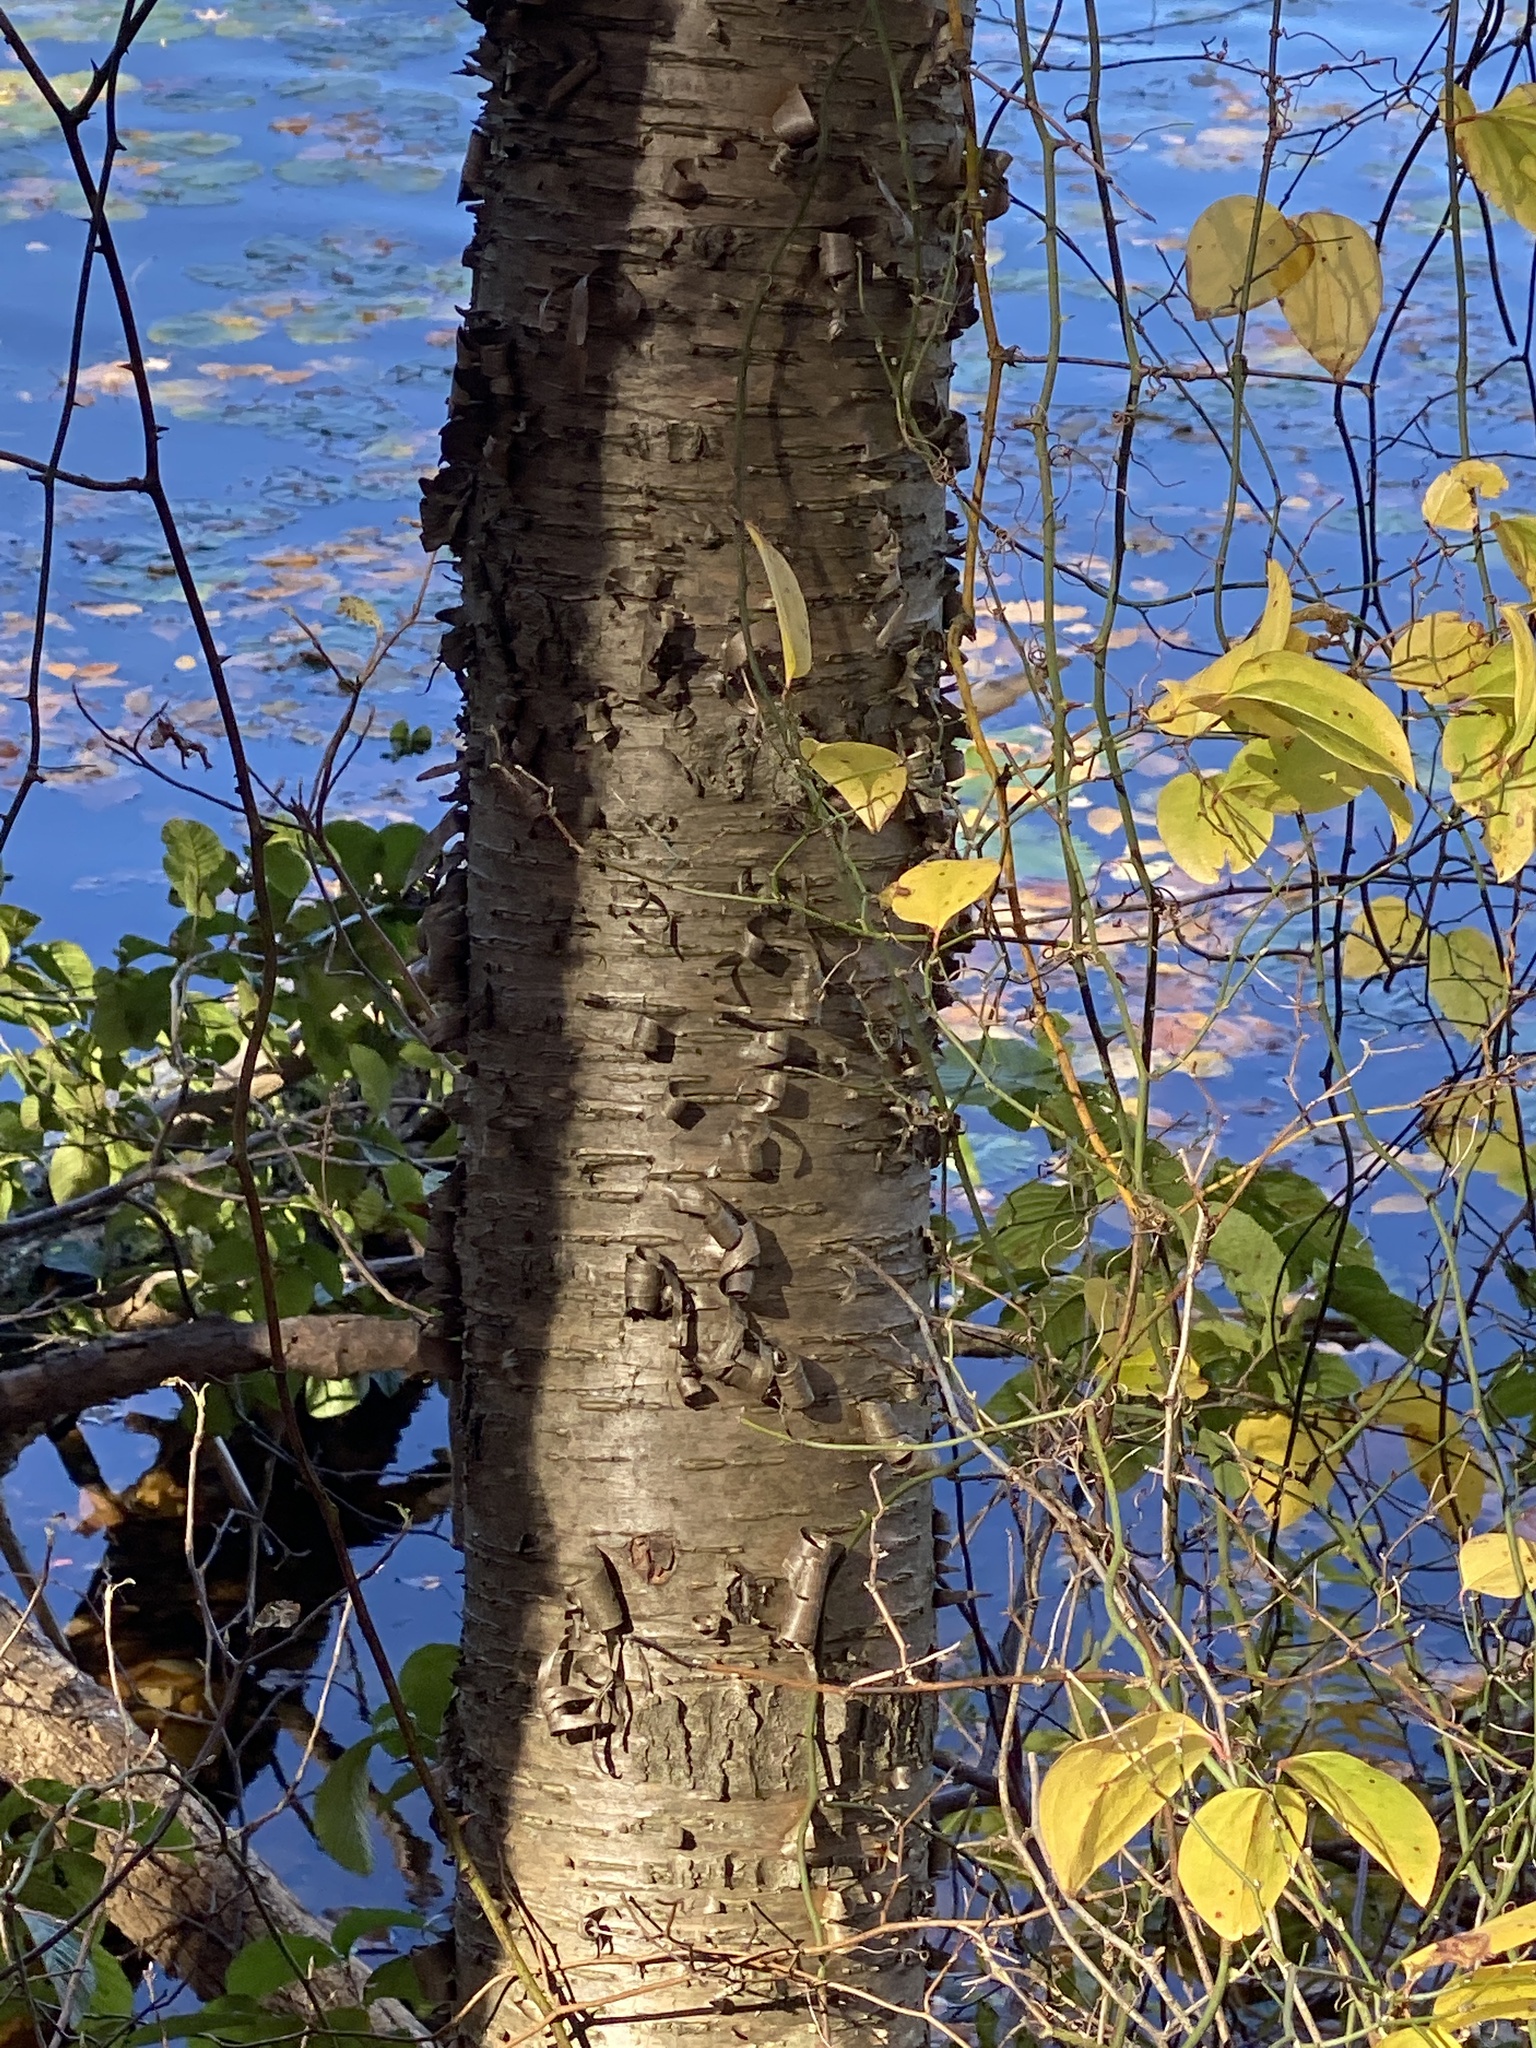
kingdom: Plantae
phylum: Tracheophyta
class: Magnoliopsida
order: Fagales
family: Betulaceae
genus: Betula
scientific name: Betula alleghaniensis
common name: Yellow birch
